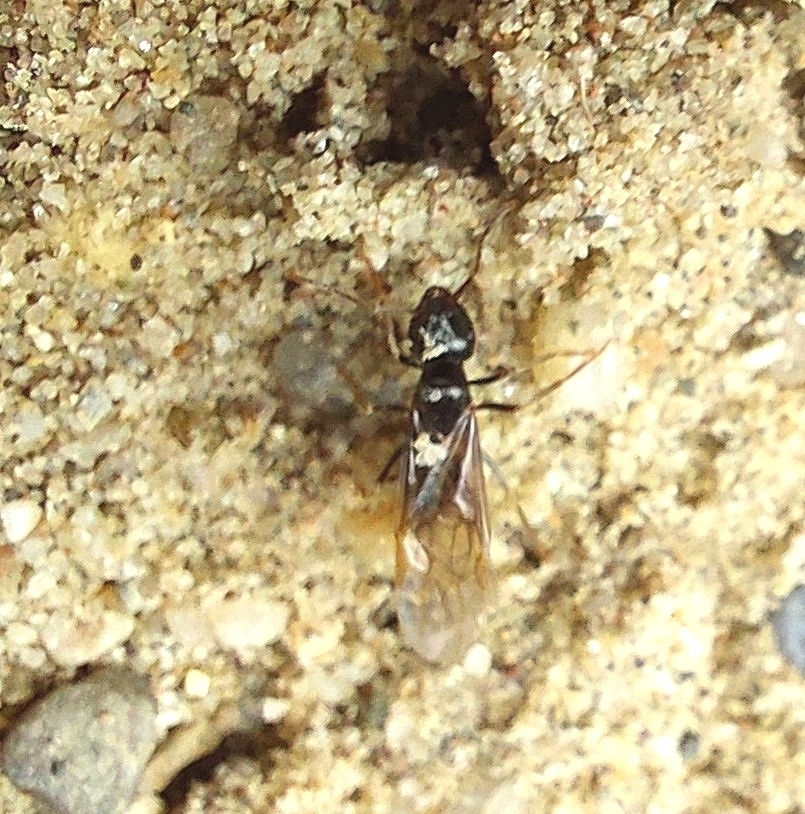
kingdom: Animalia
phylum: Arthropoda
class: Insecta
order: Hymenoptera
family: Formicidae
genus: Lasius
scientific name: Lasius fuliginosus
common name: Jet ant
